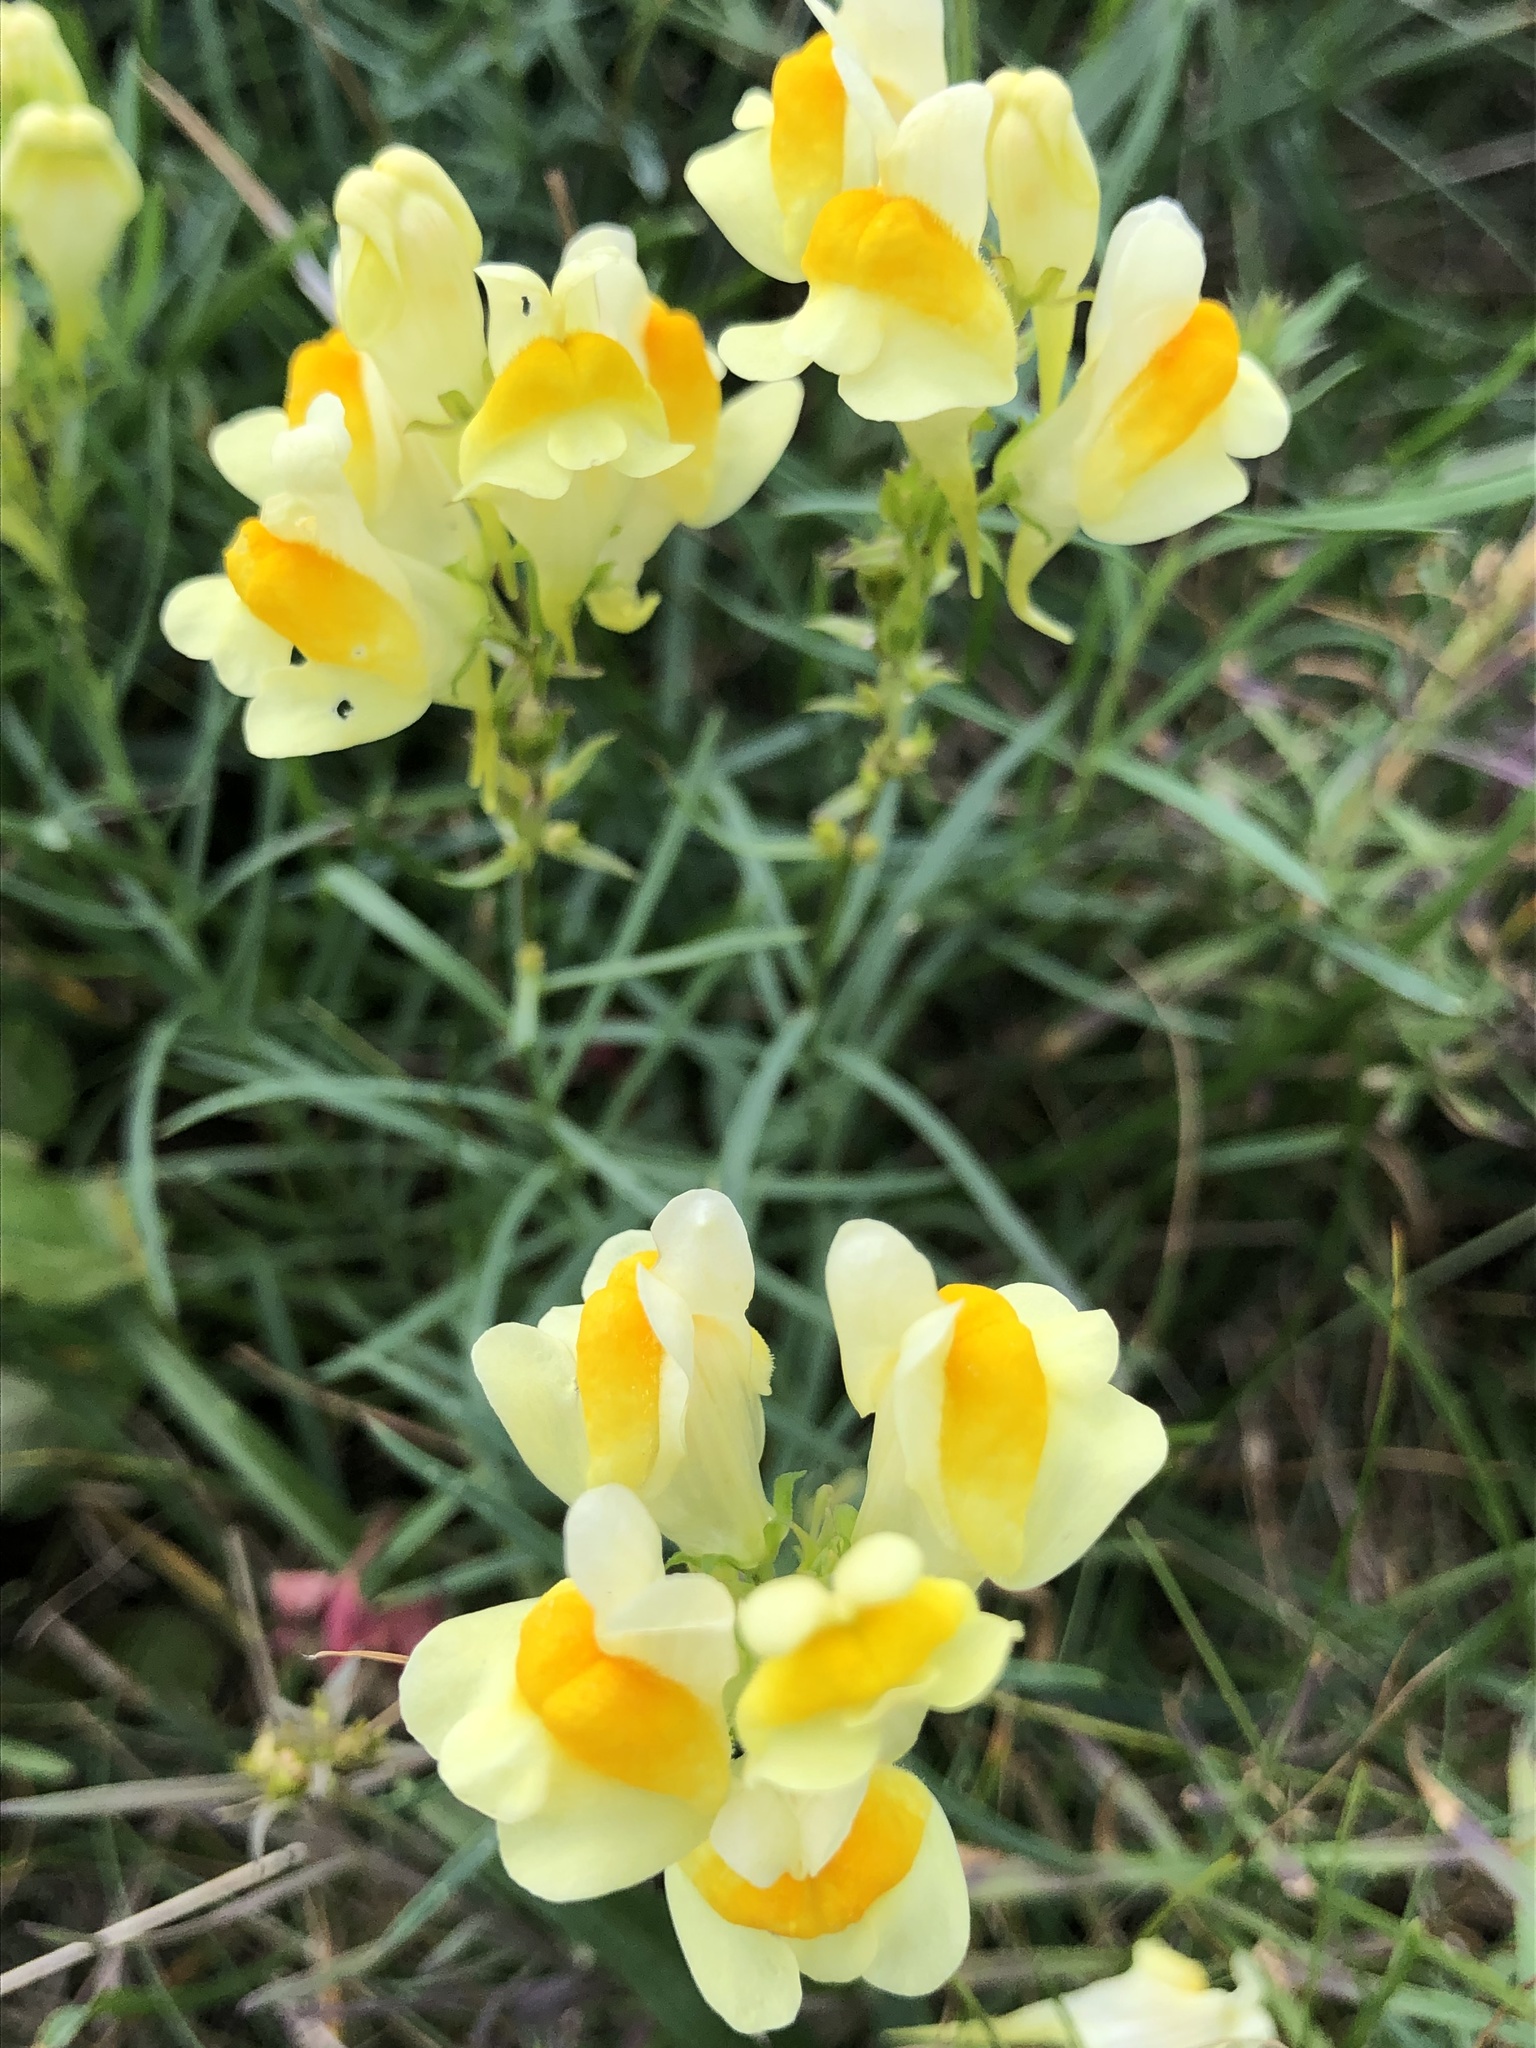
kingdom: Plantae
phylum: Tracheophyta
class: Magnoliopsida
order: Lamiales
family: Plantaginaceae
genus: Linaria
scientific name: Linaria vulgaris
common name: Butter and eggs
